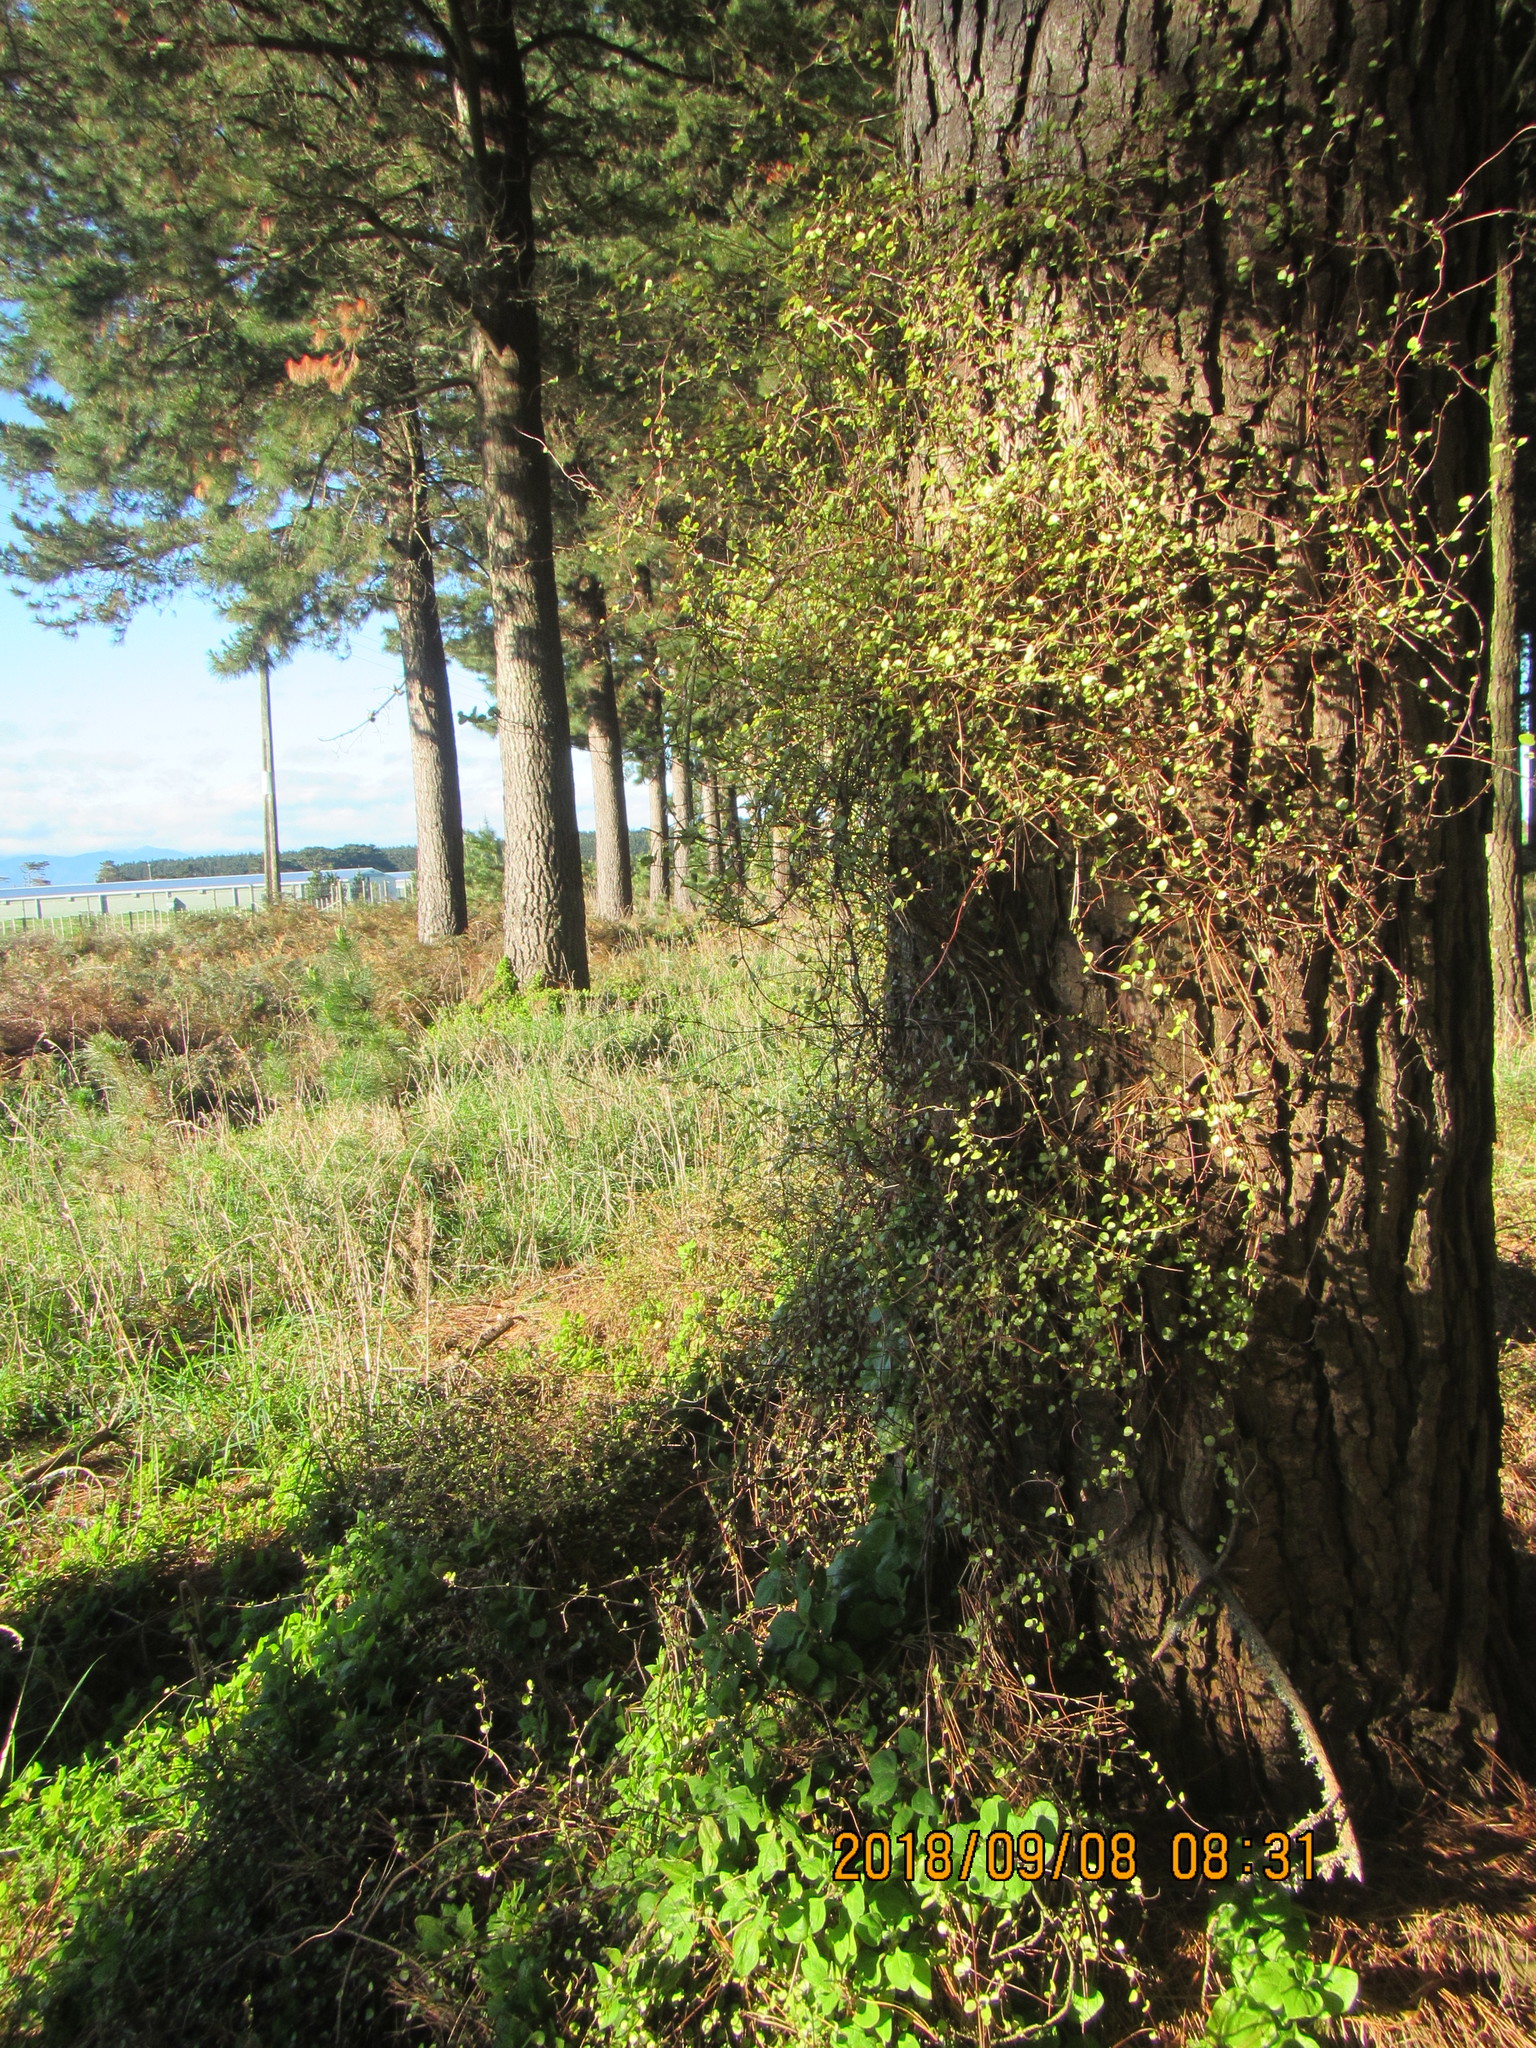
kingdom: Plantae
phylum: Tracheophyta
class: Magnoliopsida
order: Caryophyllales
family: Polygonaceae
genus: Muehlenbeckia
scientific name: Muehlenbeckia complexa
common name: Wireplant
